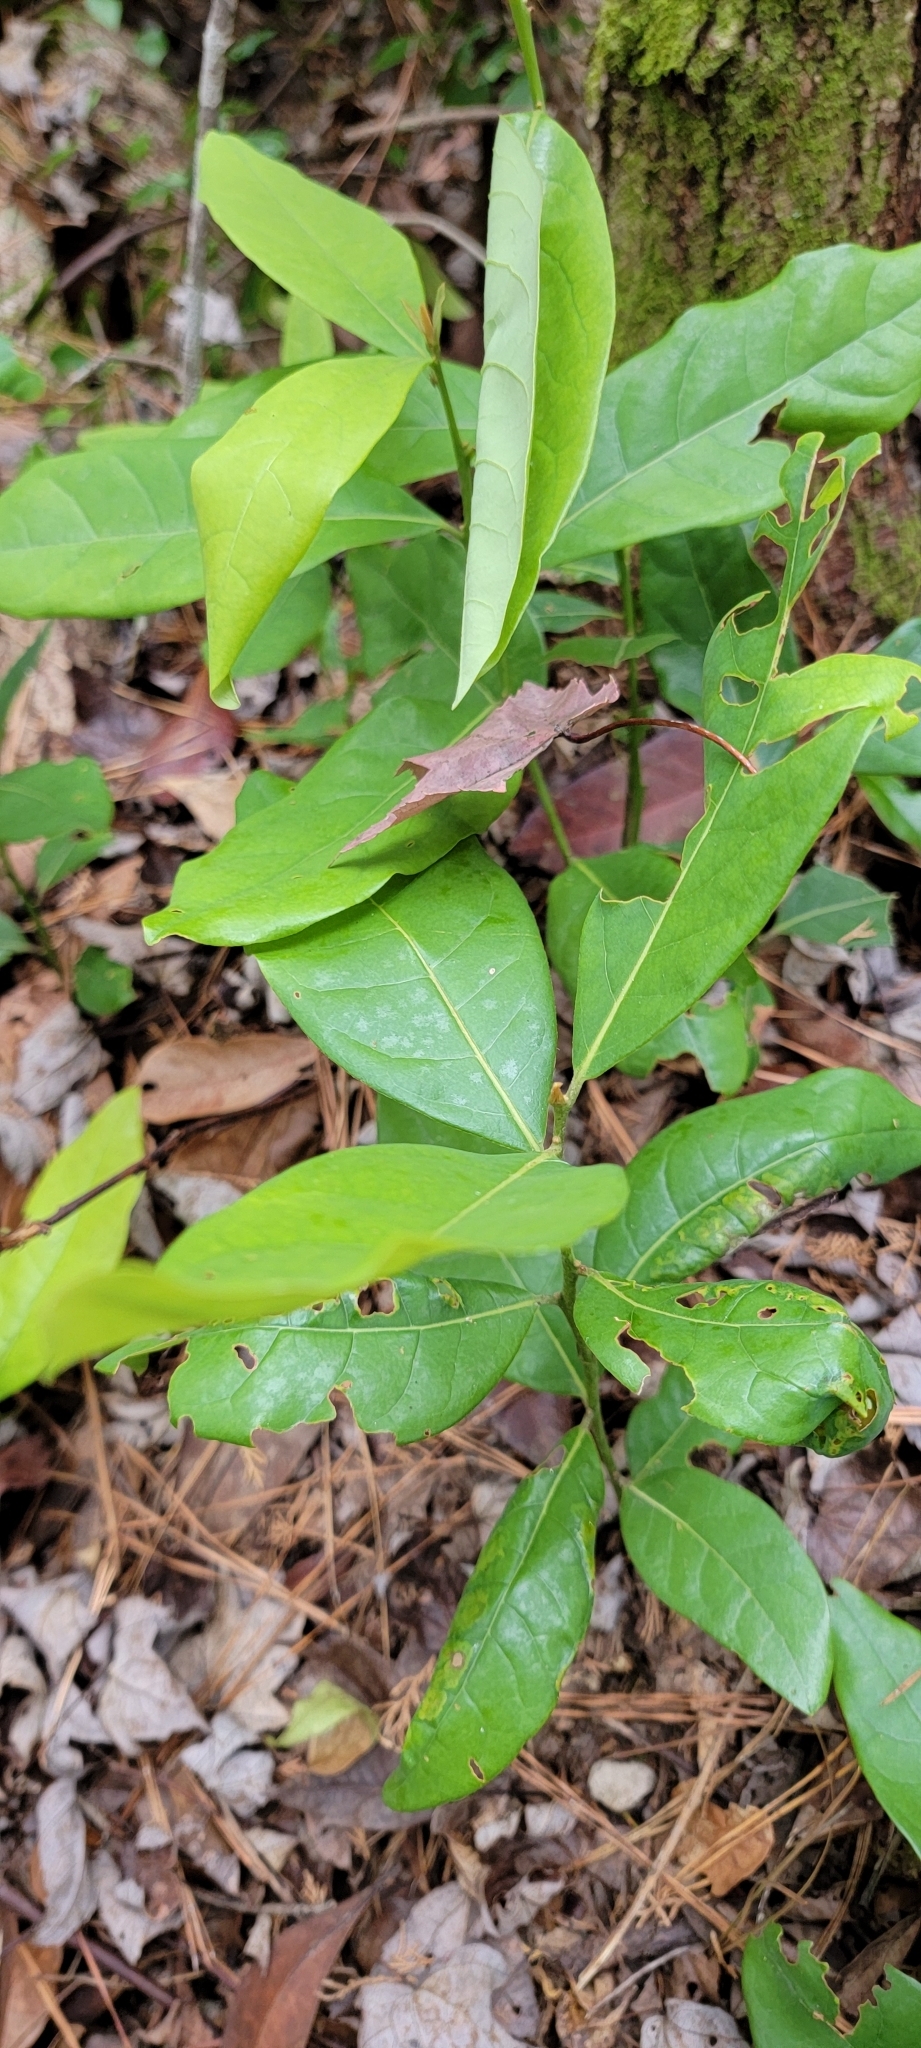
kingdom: Plantae
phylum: Tracheophyta
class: Magnoliopsida
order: Magnoliales
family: Magnoliaceae
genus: Magnolia
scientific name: Magnolia virginiana
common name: Swamp bay
